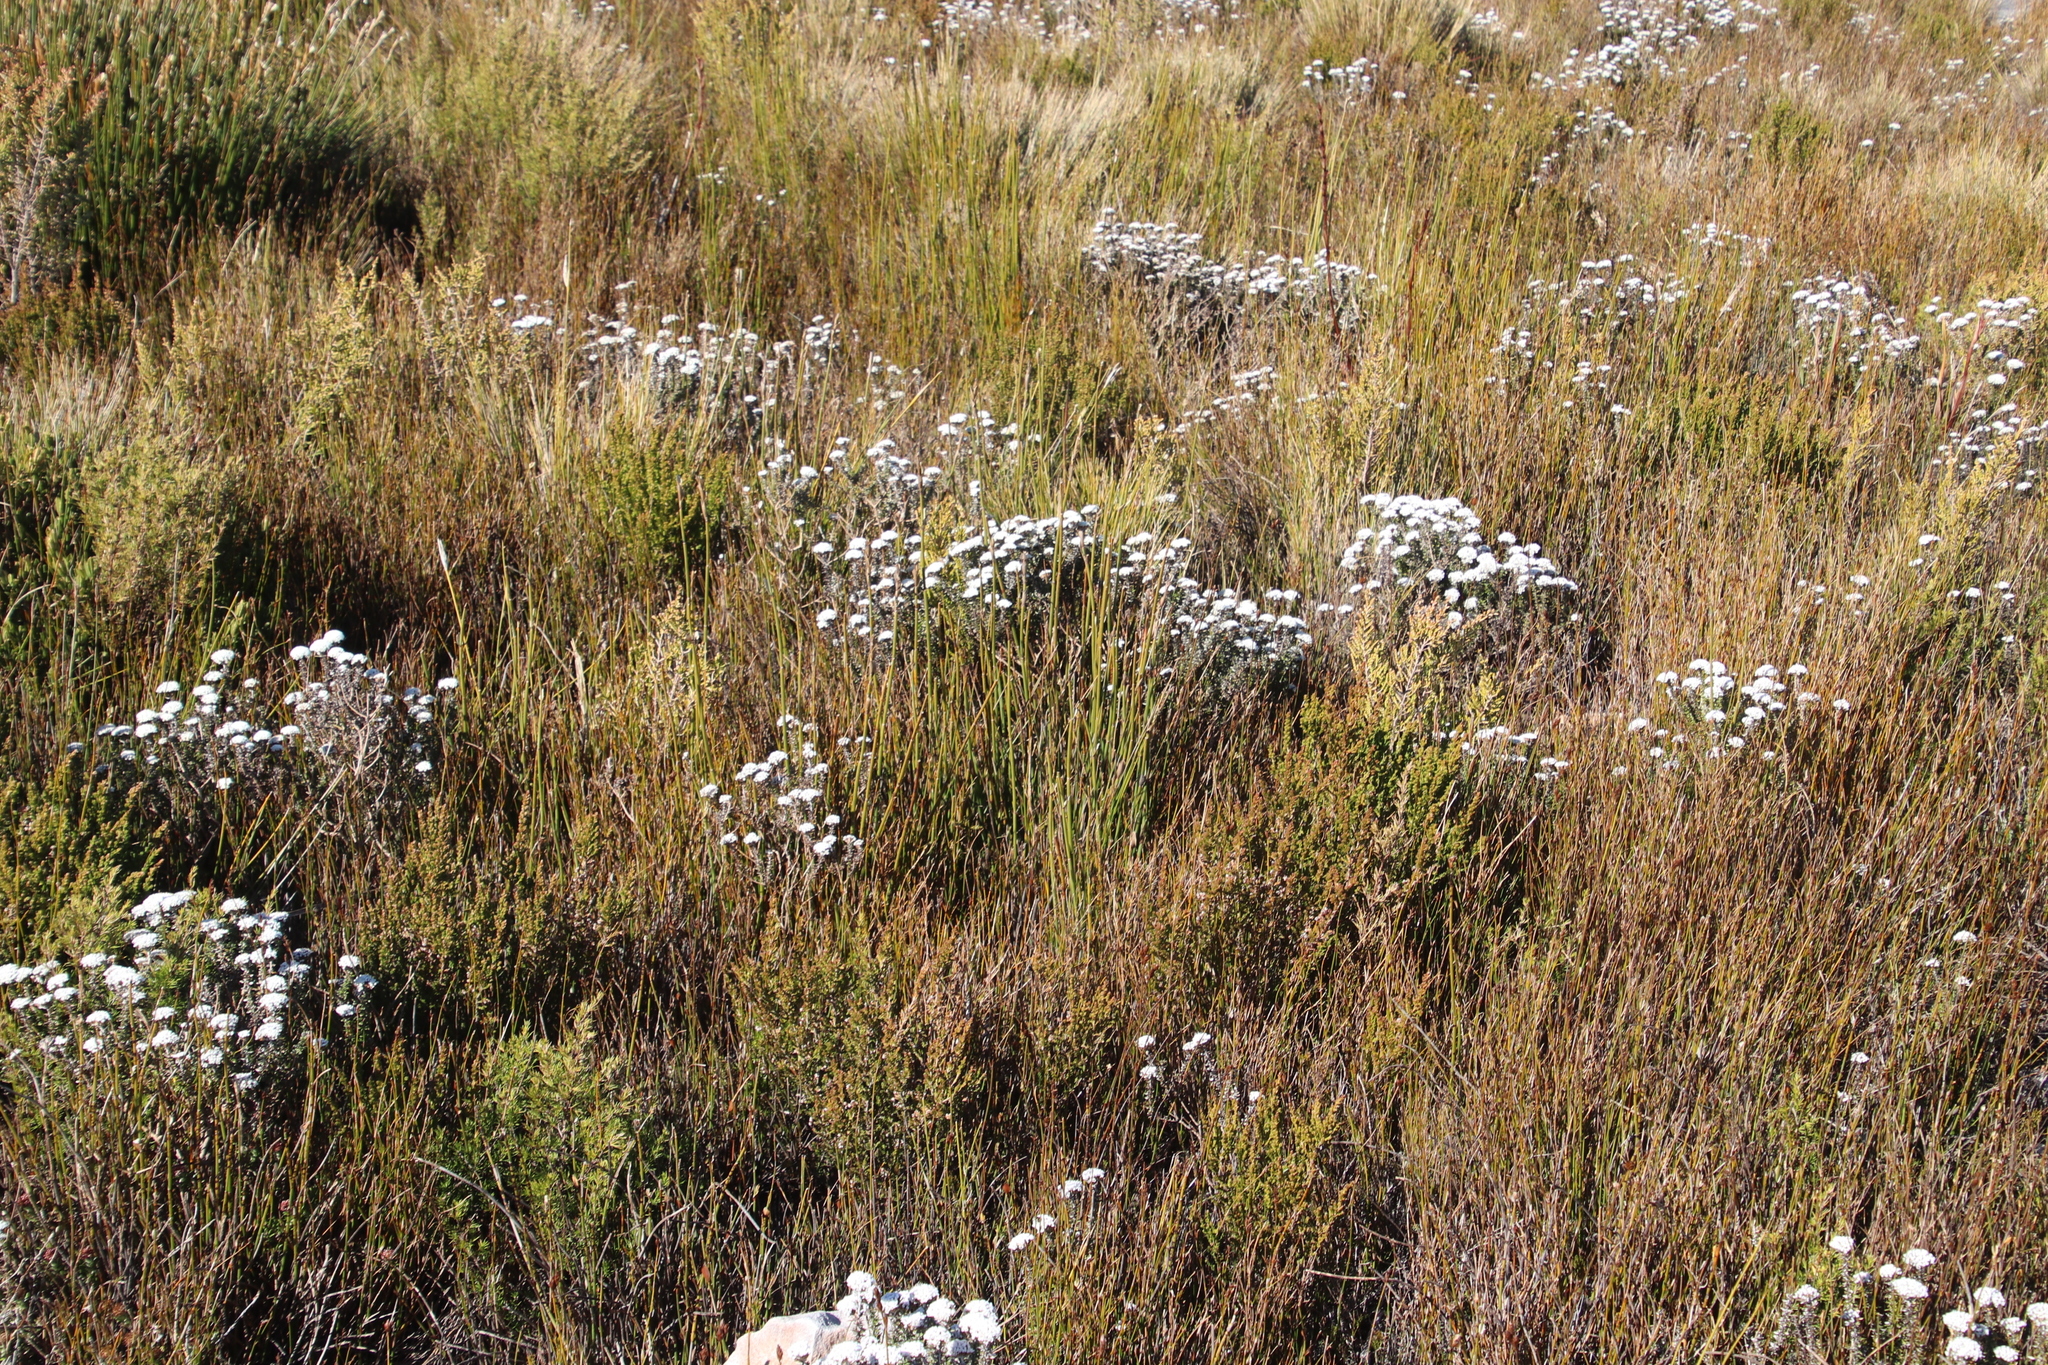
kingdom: Plantae
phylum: Tracheophyta
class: Magnoliopsida
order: Asterales
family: Asteraceae
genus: Metalasia
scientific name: Metalasia montana
